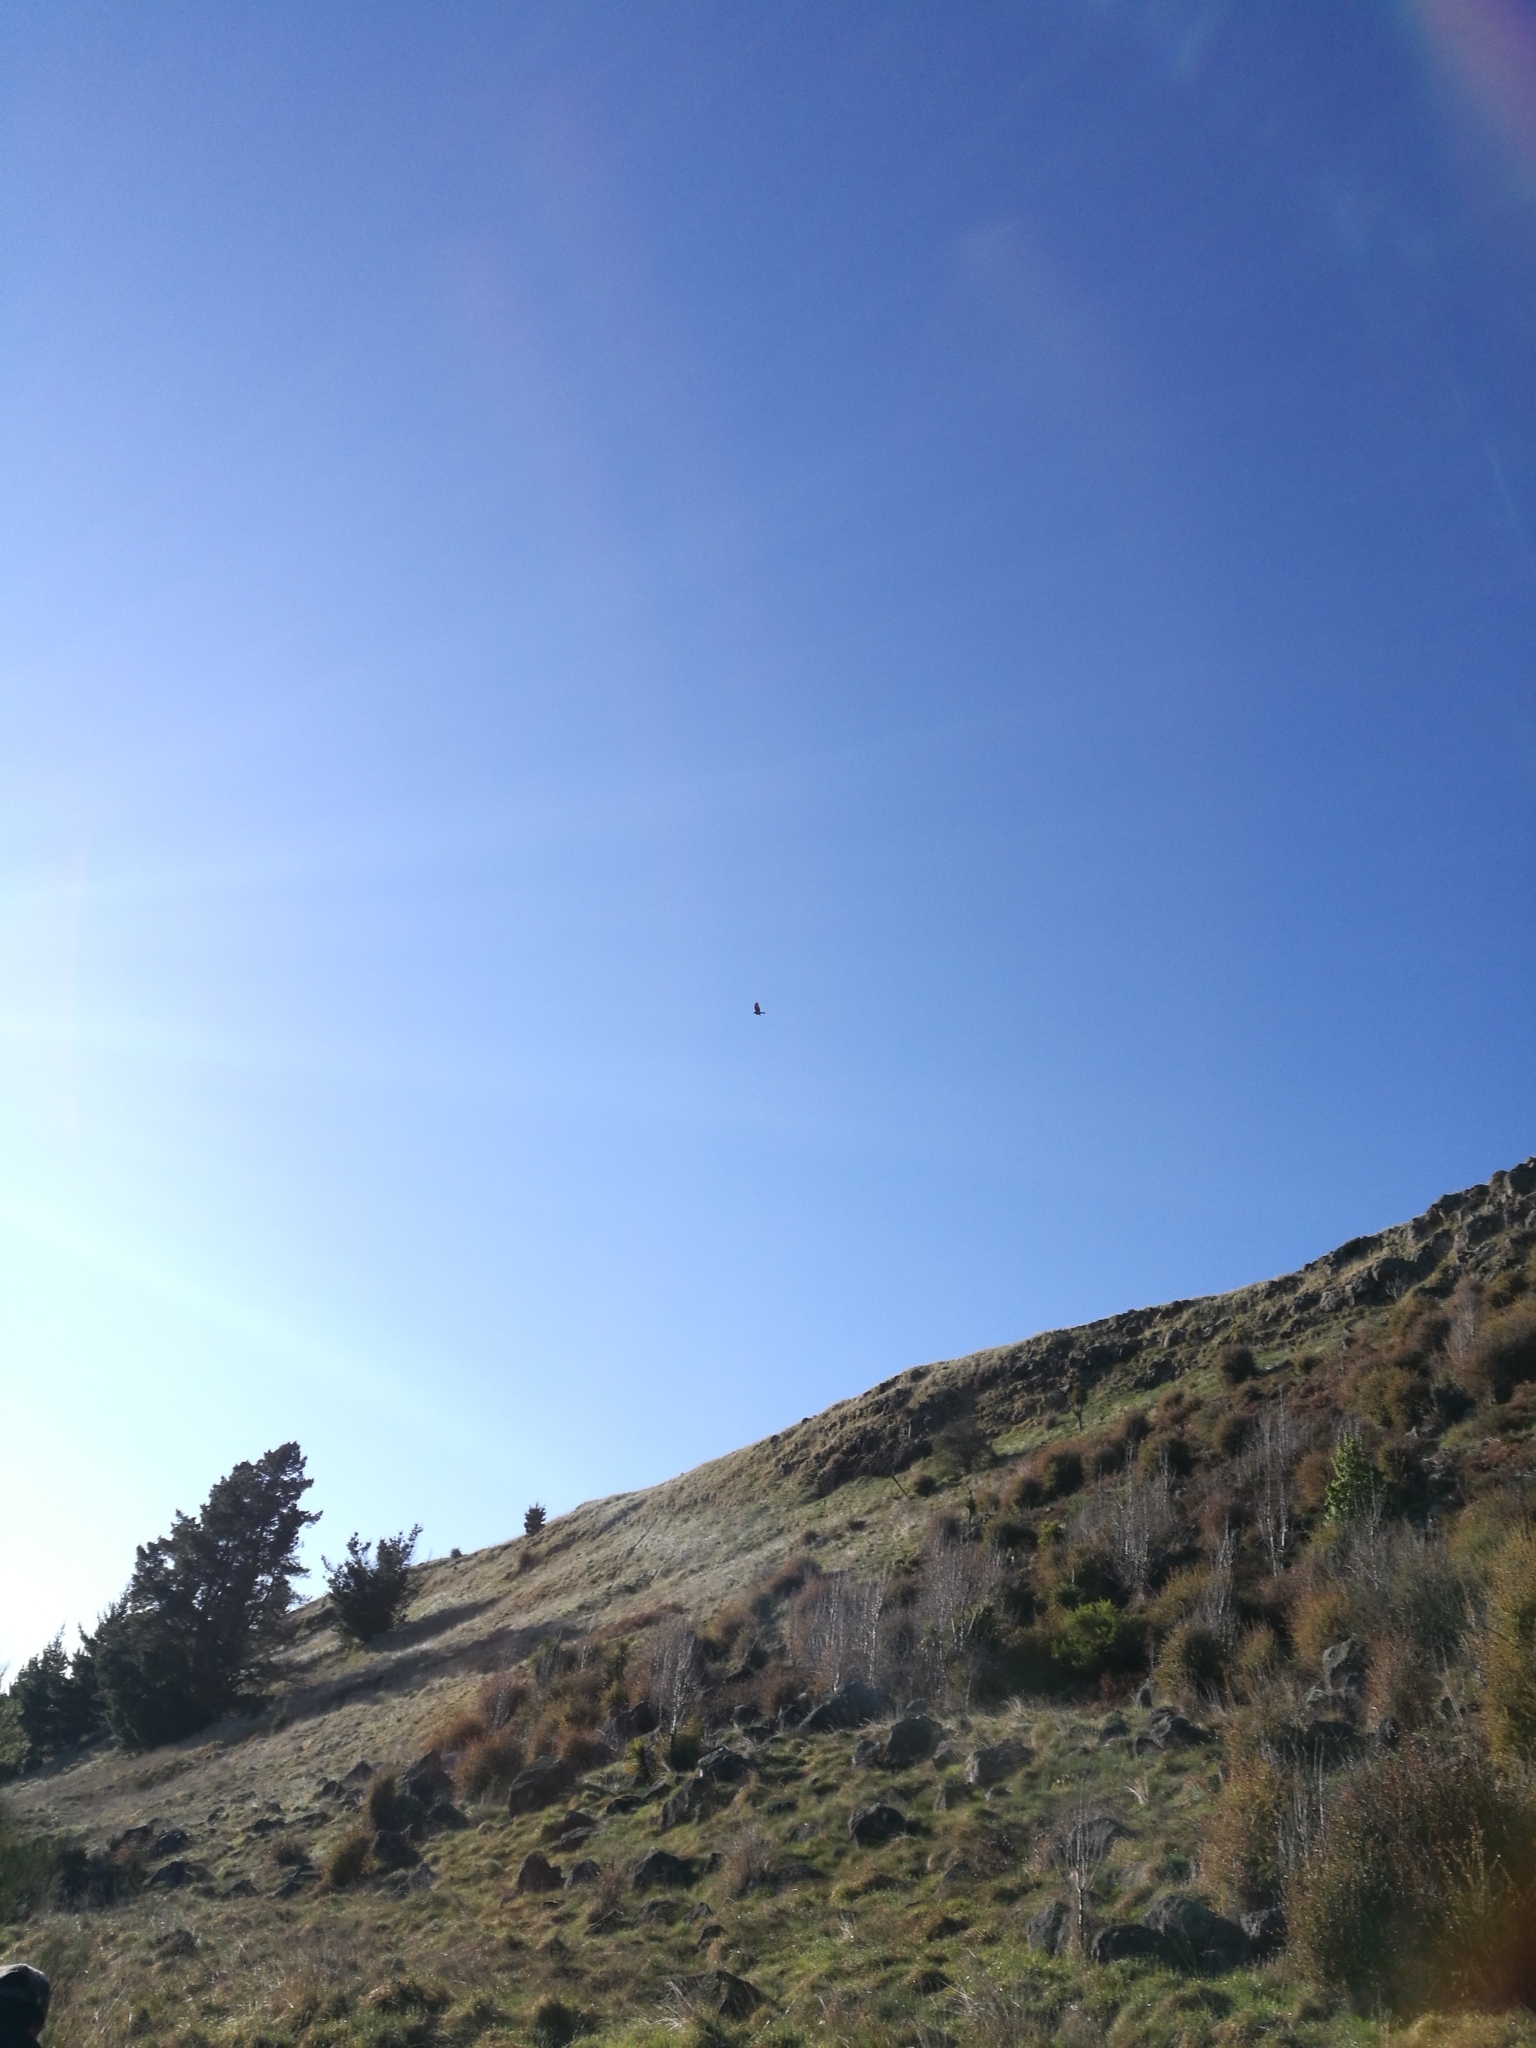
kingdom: Animalia
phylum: Chordata
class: Aves
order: Accipitriformes
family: Accipitridae
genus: Circus
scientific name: Circus approximans
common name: Swamp harrier
